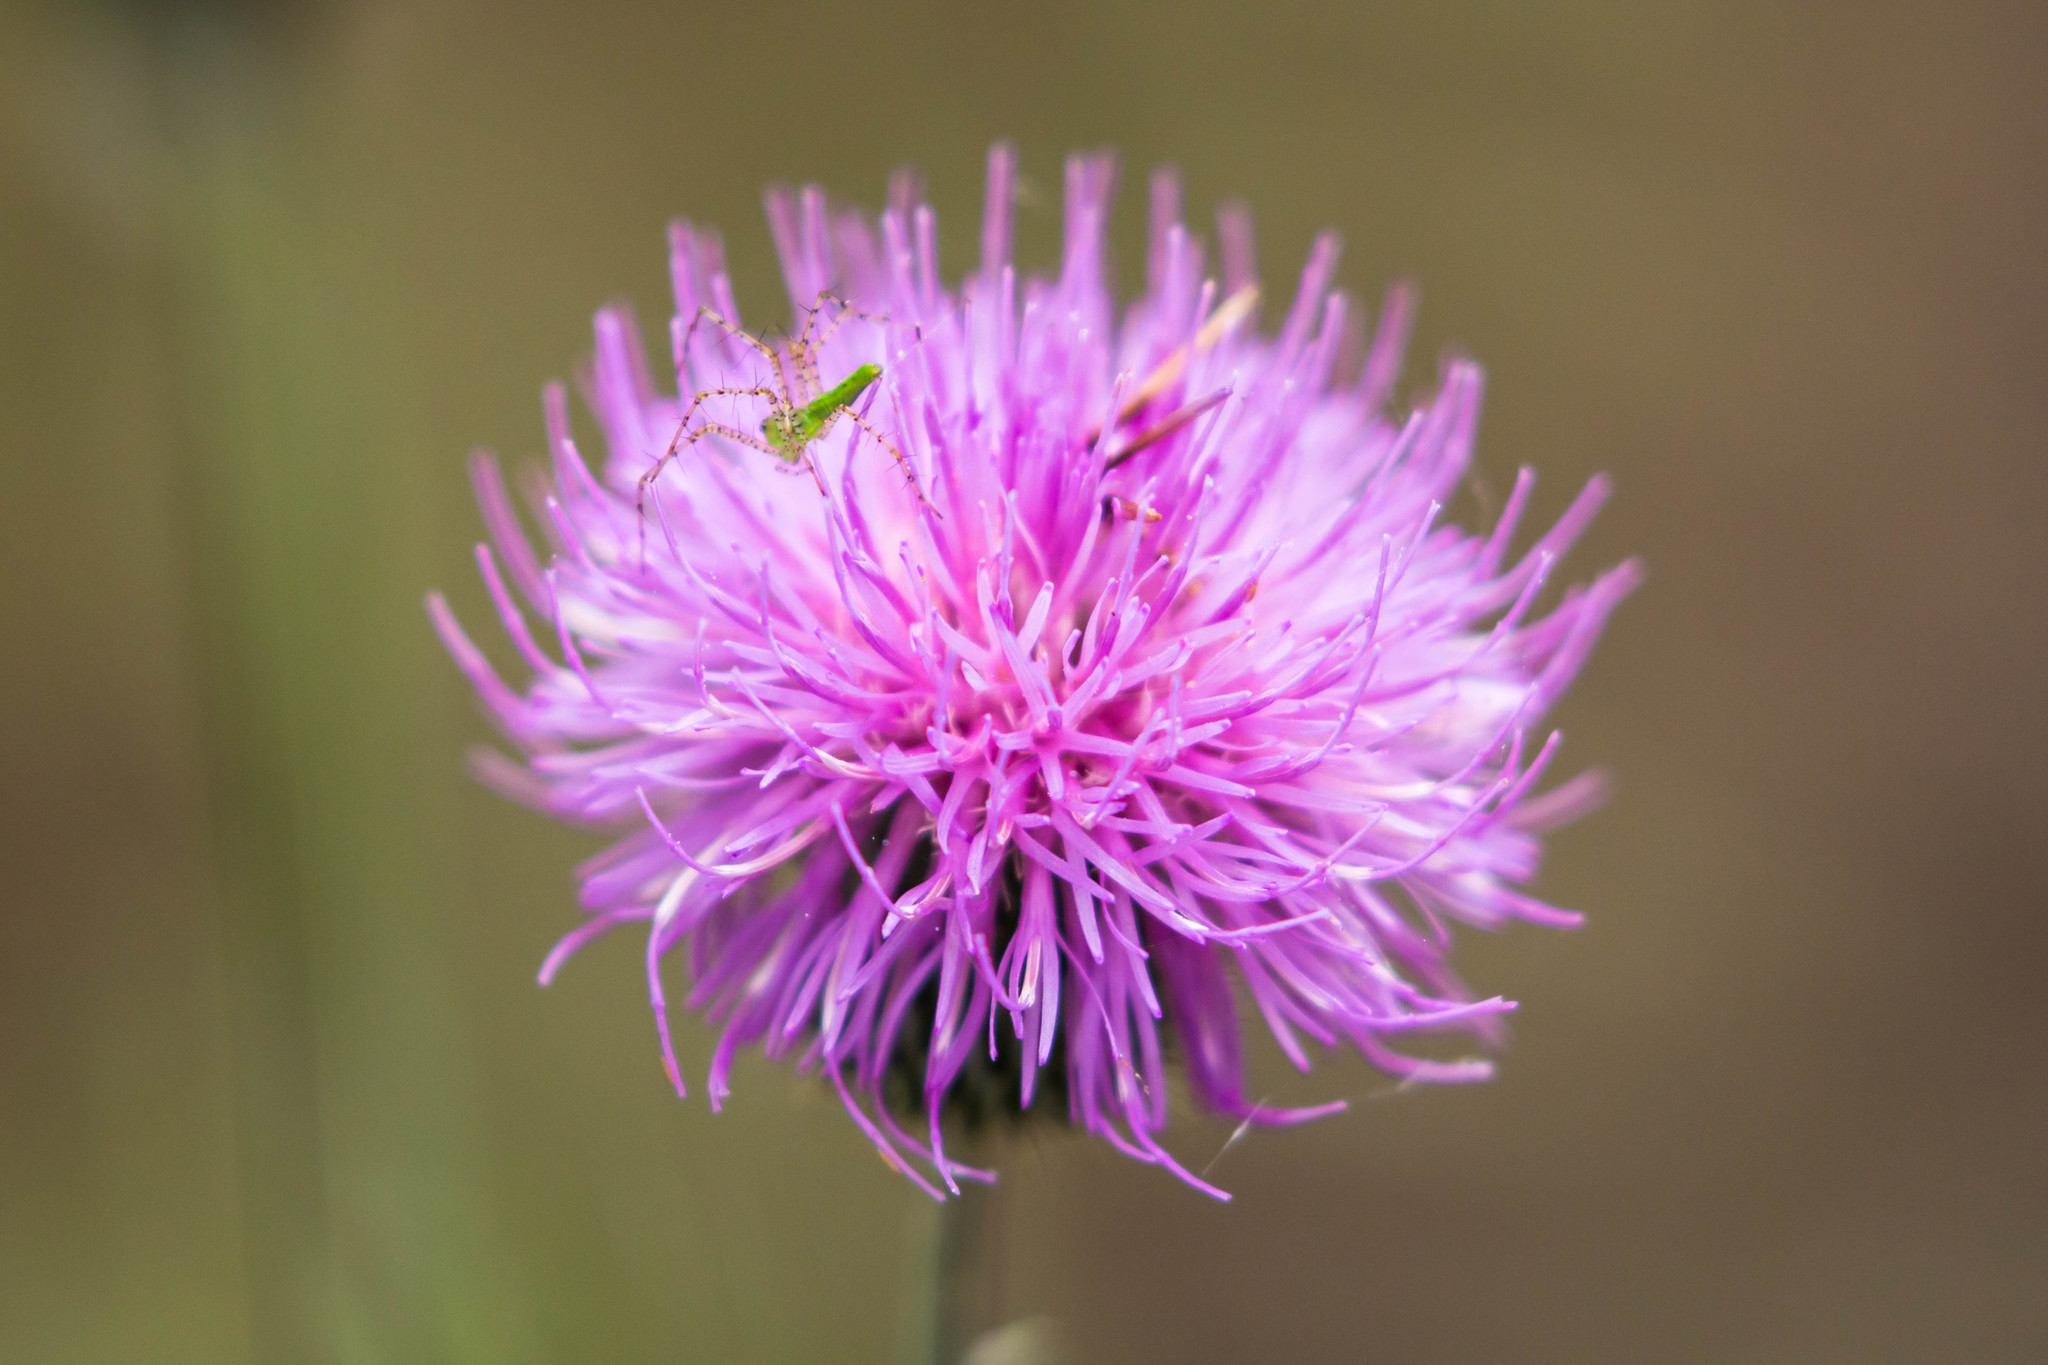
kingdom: Animalia
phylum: Arthropoda
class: Arachnida
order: Araneae
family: Oxyopidae
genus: Peucetia
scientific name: Peucetia viridans
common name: Lynx spiders
